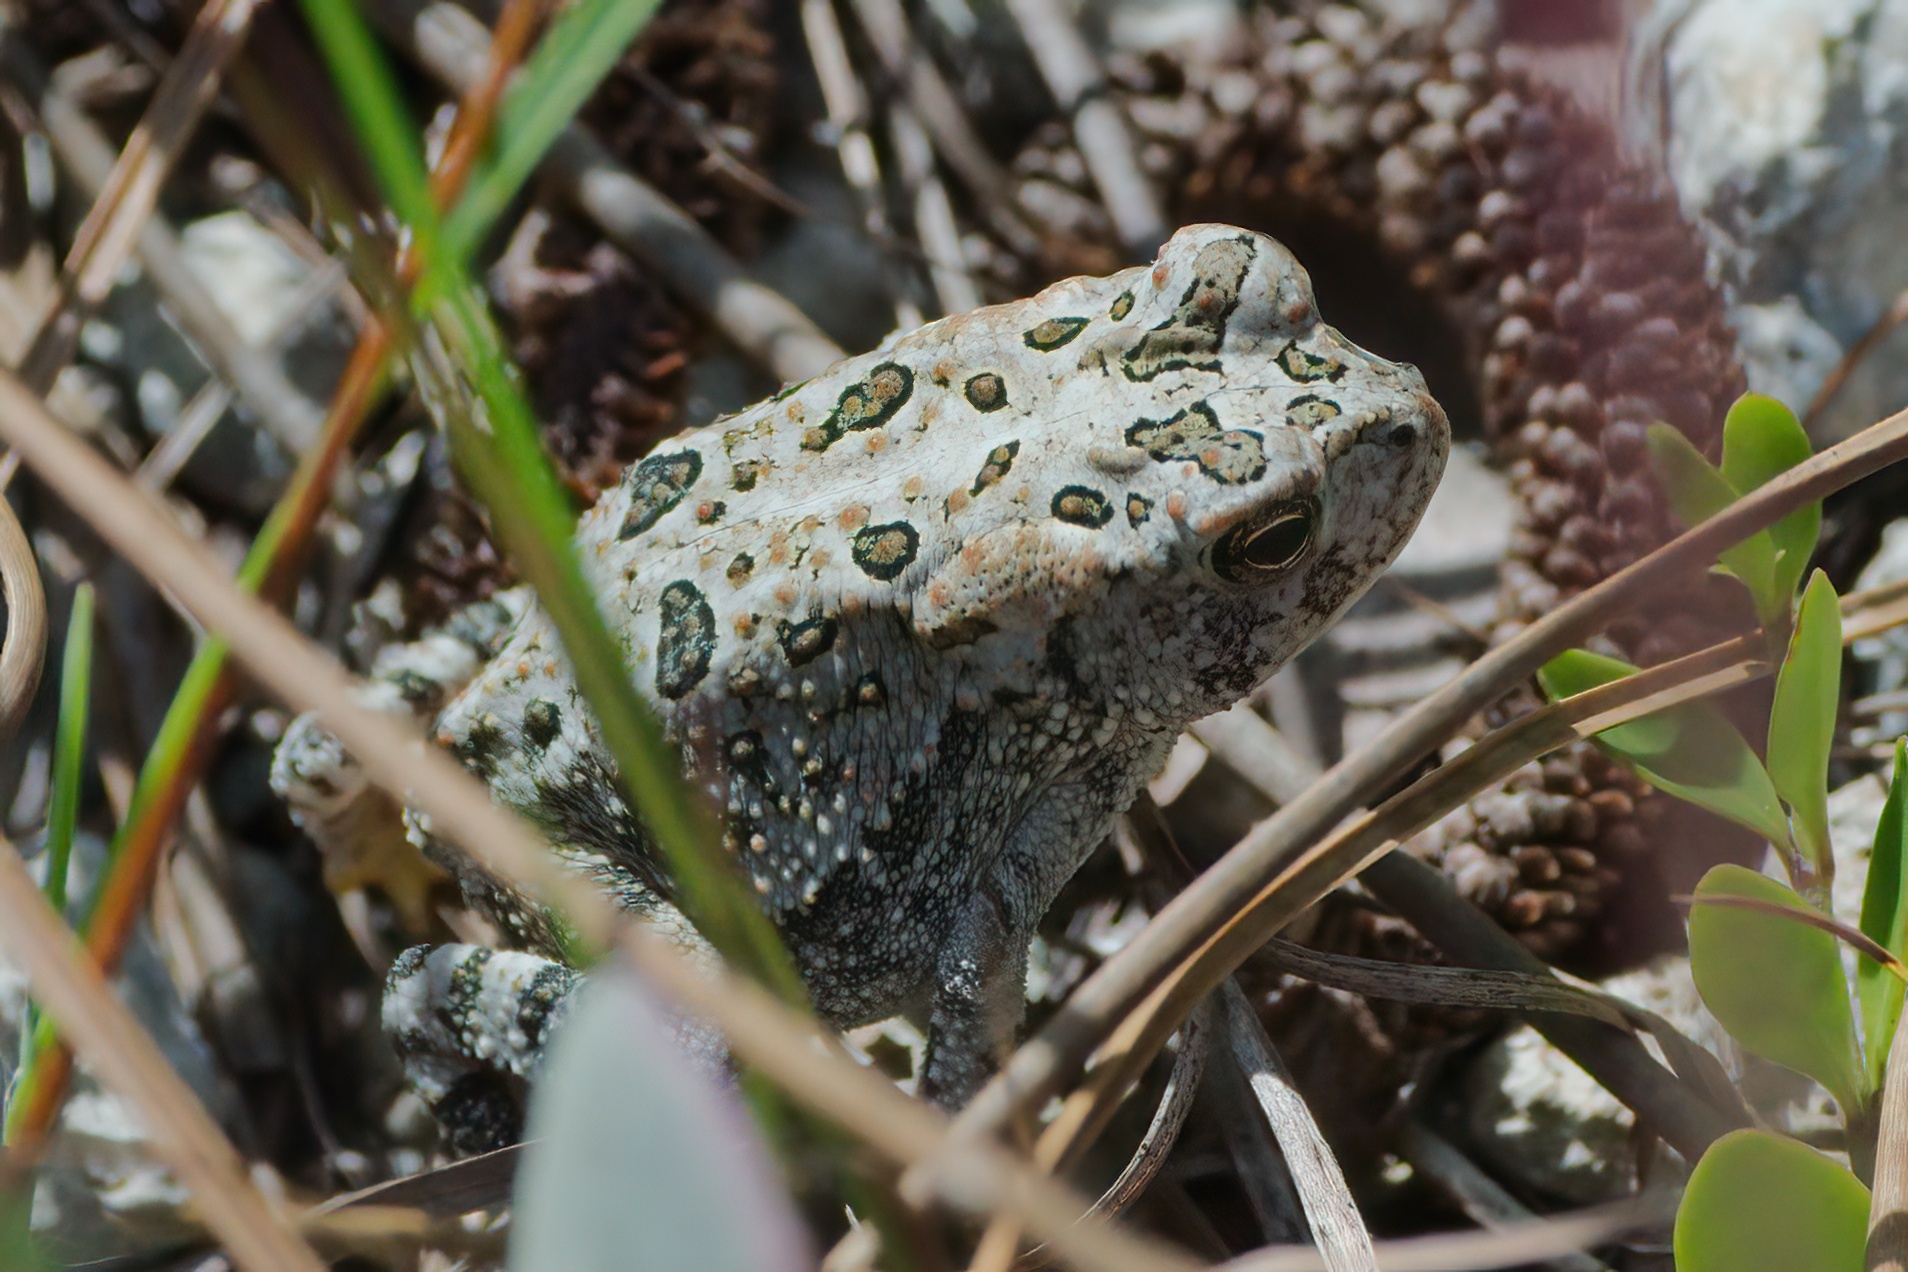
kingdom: Animalia
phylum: Chordata
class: Amphibia
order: Anura
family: Bufonidae
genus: Anaxyrus
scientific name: Anaxyrus terrestris
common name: Southern toad
